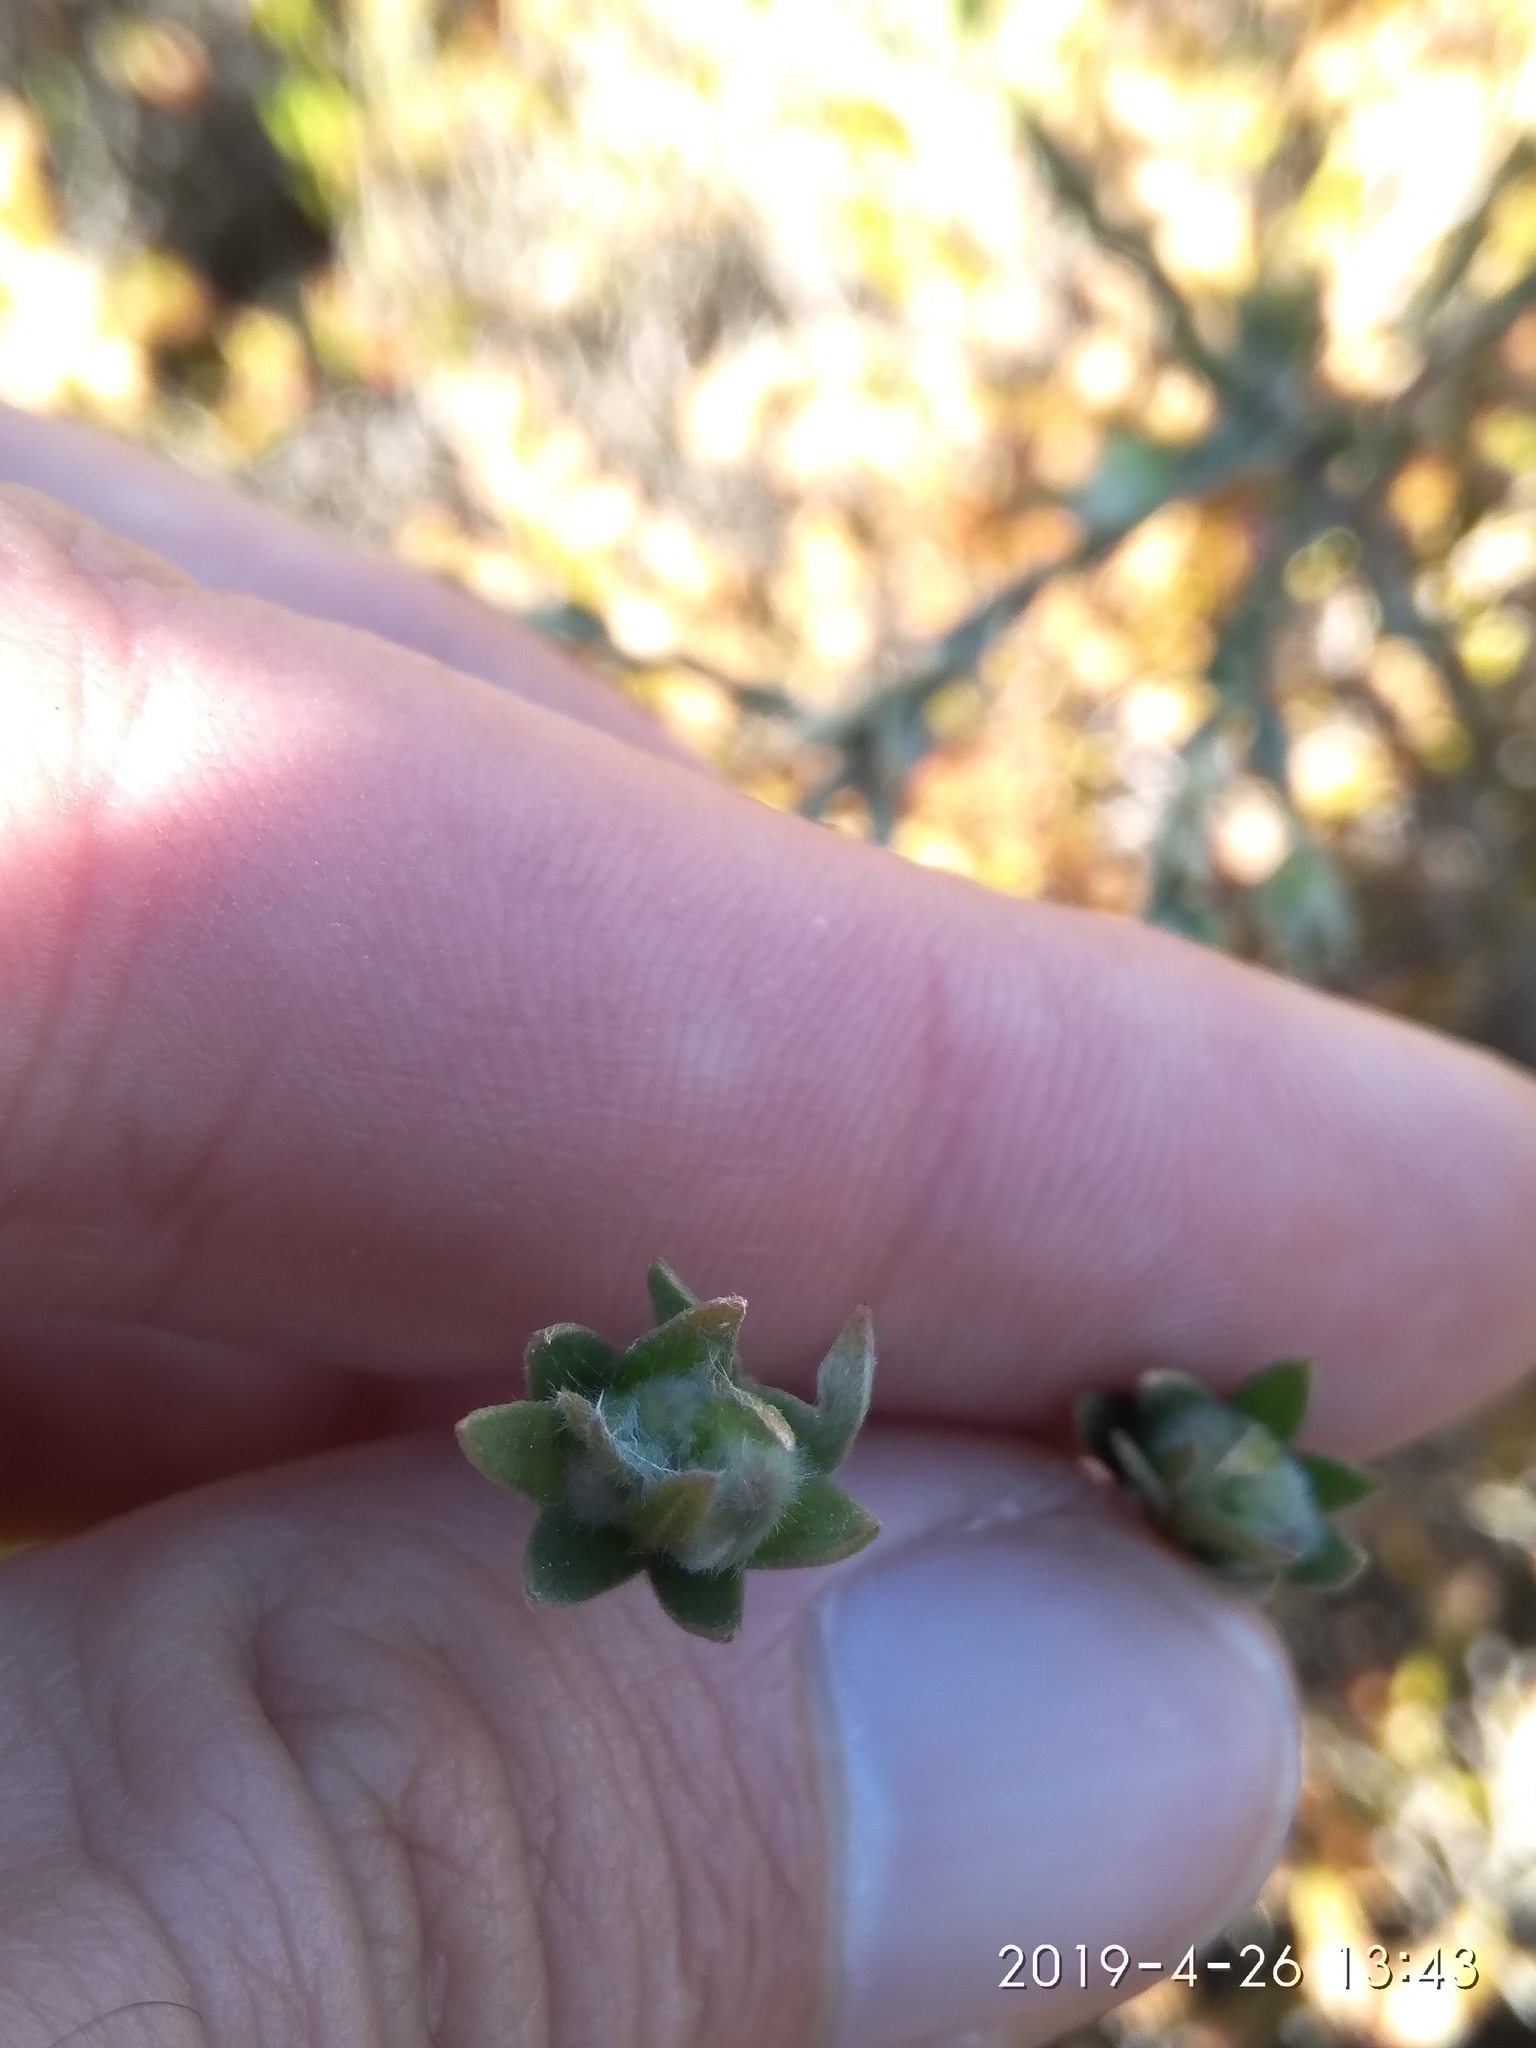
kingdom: Plantae
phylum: Tracheophyta
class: Magnoliopsida
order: Fabales
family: Fabaceae
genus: Amphithalea
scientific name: Amphithalea tomentosa
